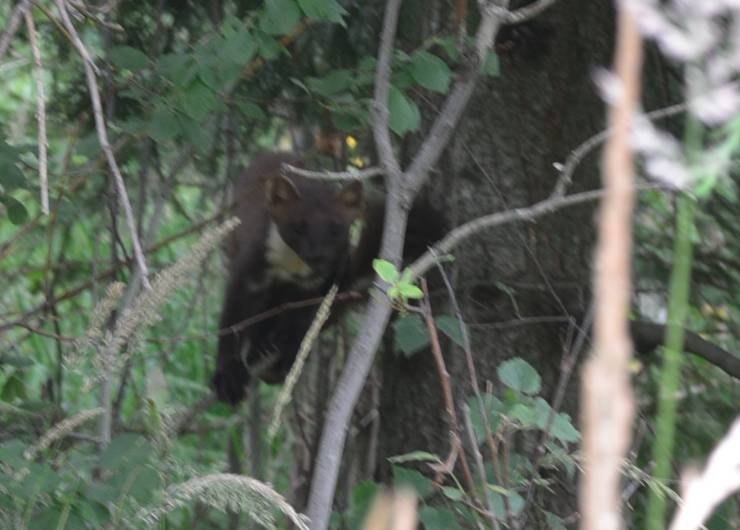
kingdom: Animalia
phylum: Chordata
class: Mammalia
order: Carnivora
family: Mustelidae
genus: Martes
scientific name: Martes martes
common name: European pine marten
